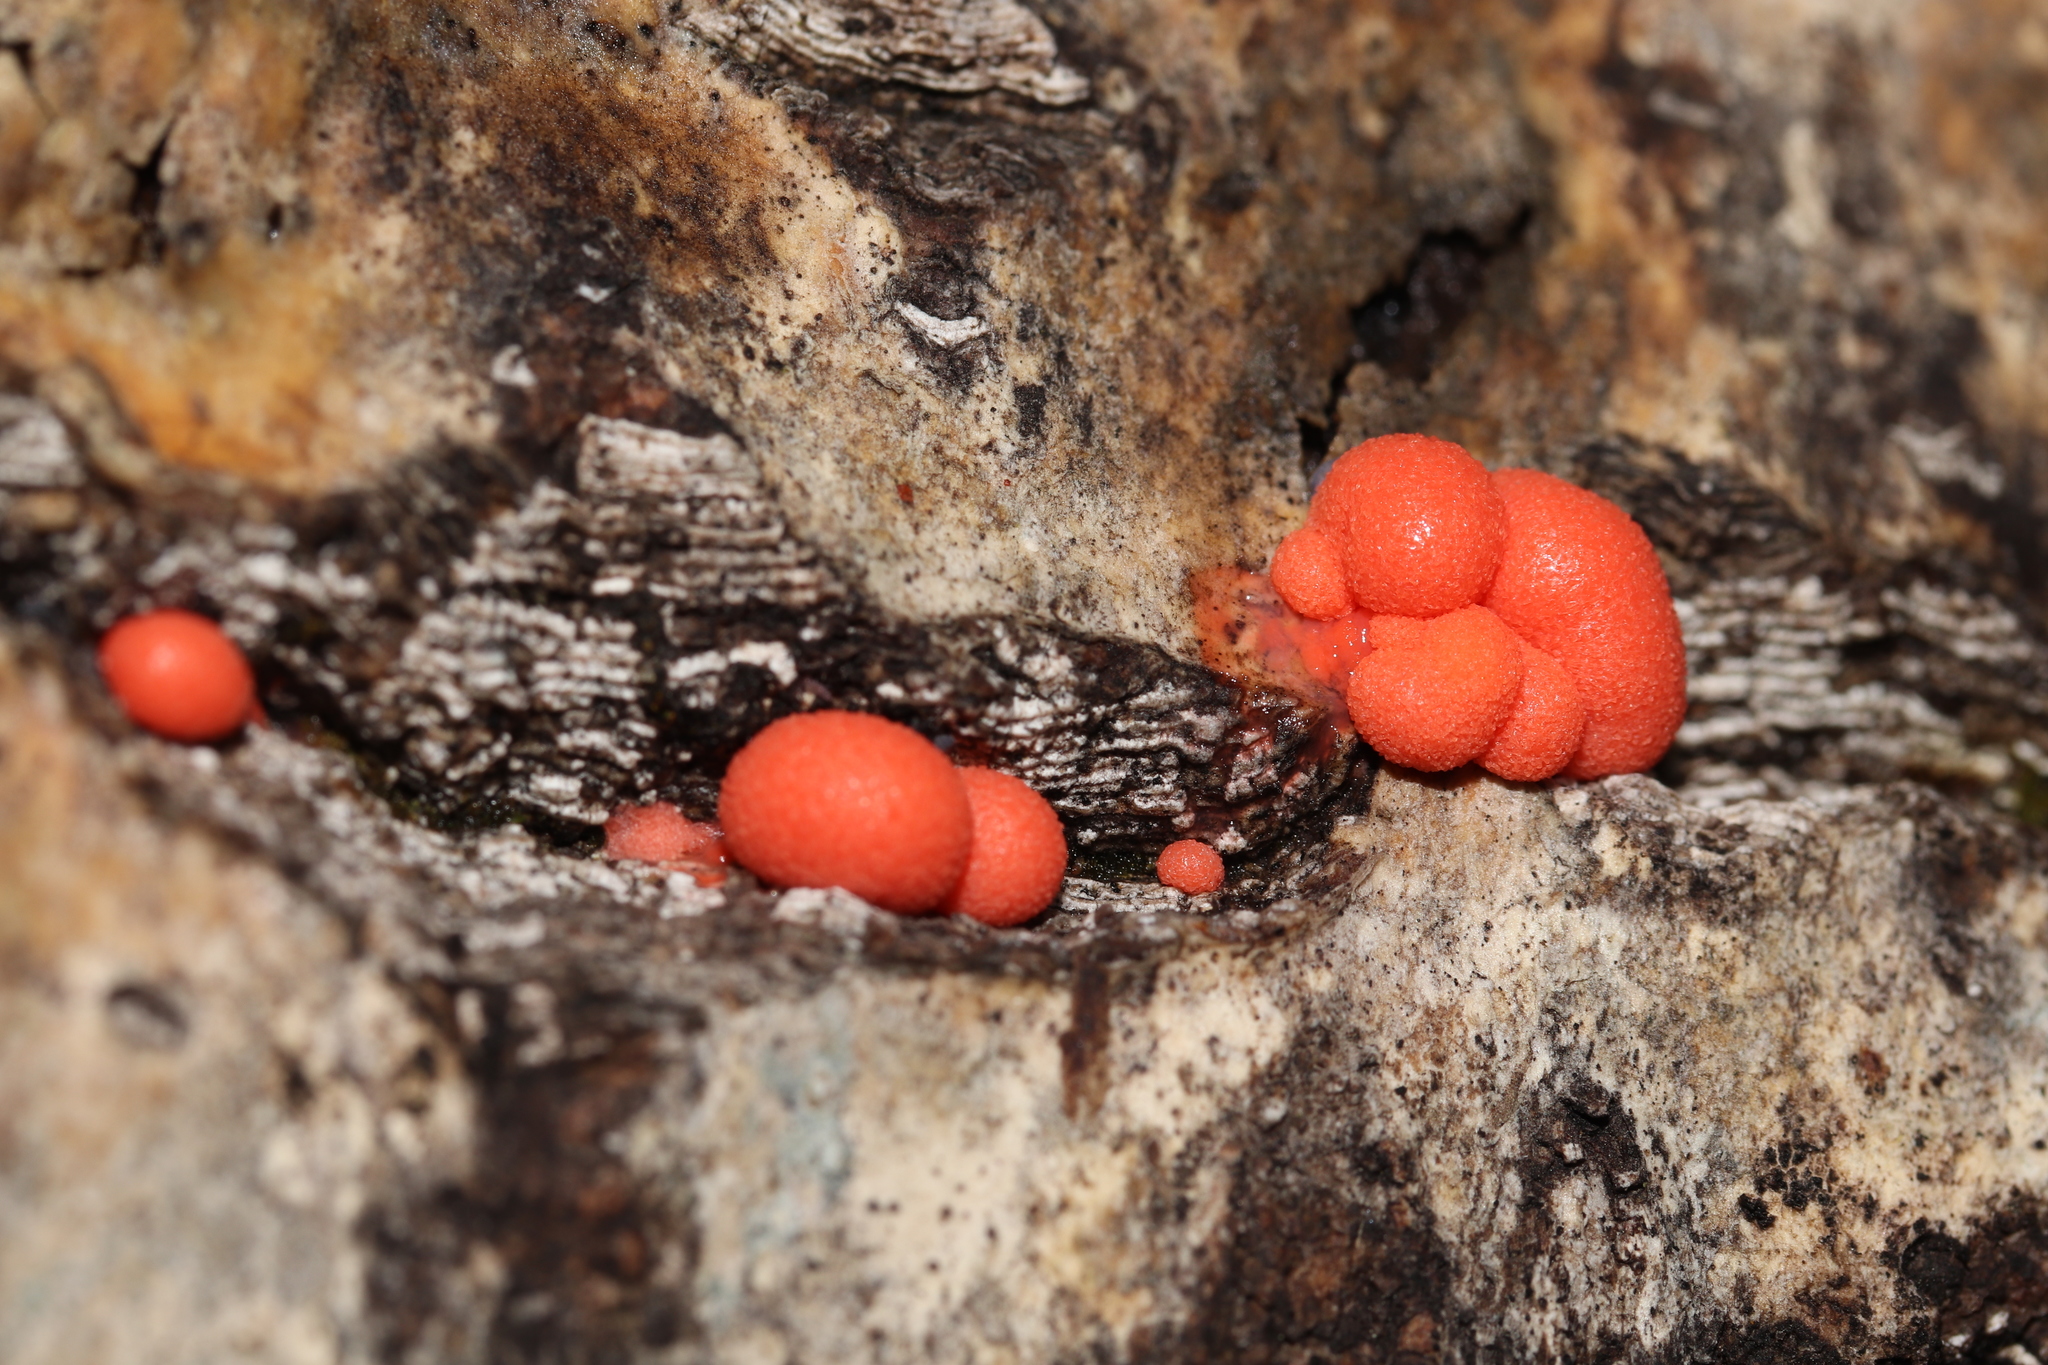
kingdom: Protozoa
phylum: Mycetozoa
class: Myxomycetes
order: Cribrariales
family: Tubiferaceae
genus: Lycogala
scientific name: Lycogala epidendrum
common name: Wolf's milk
